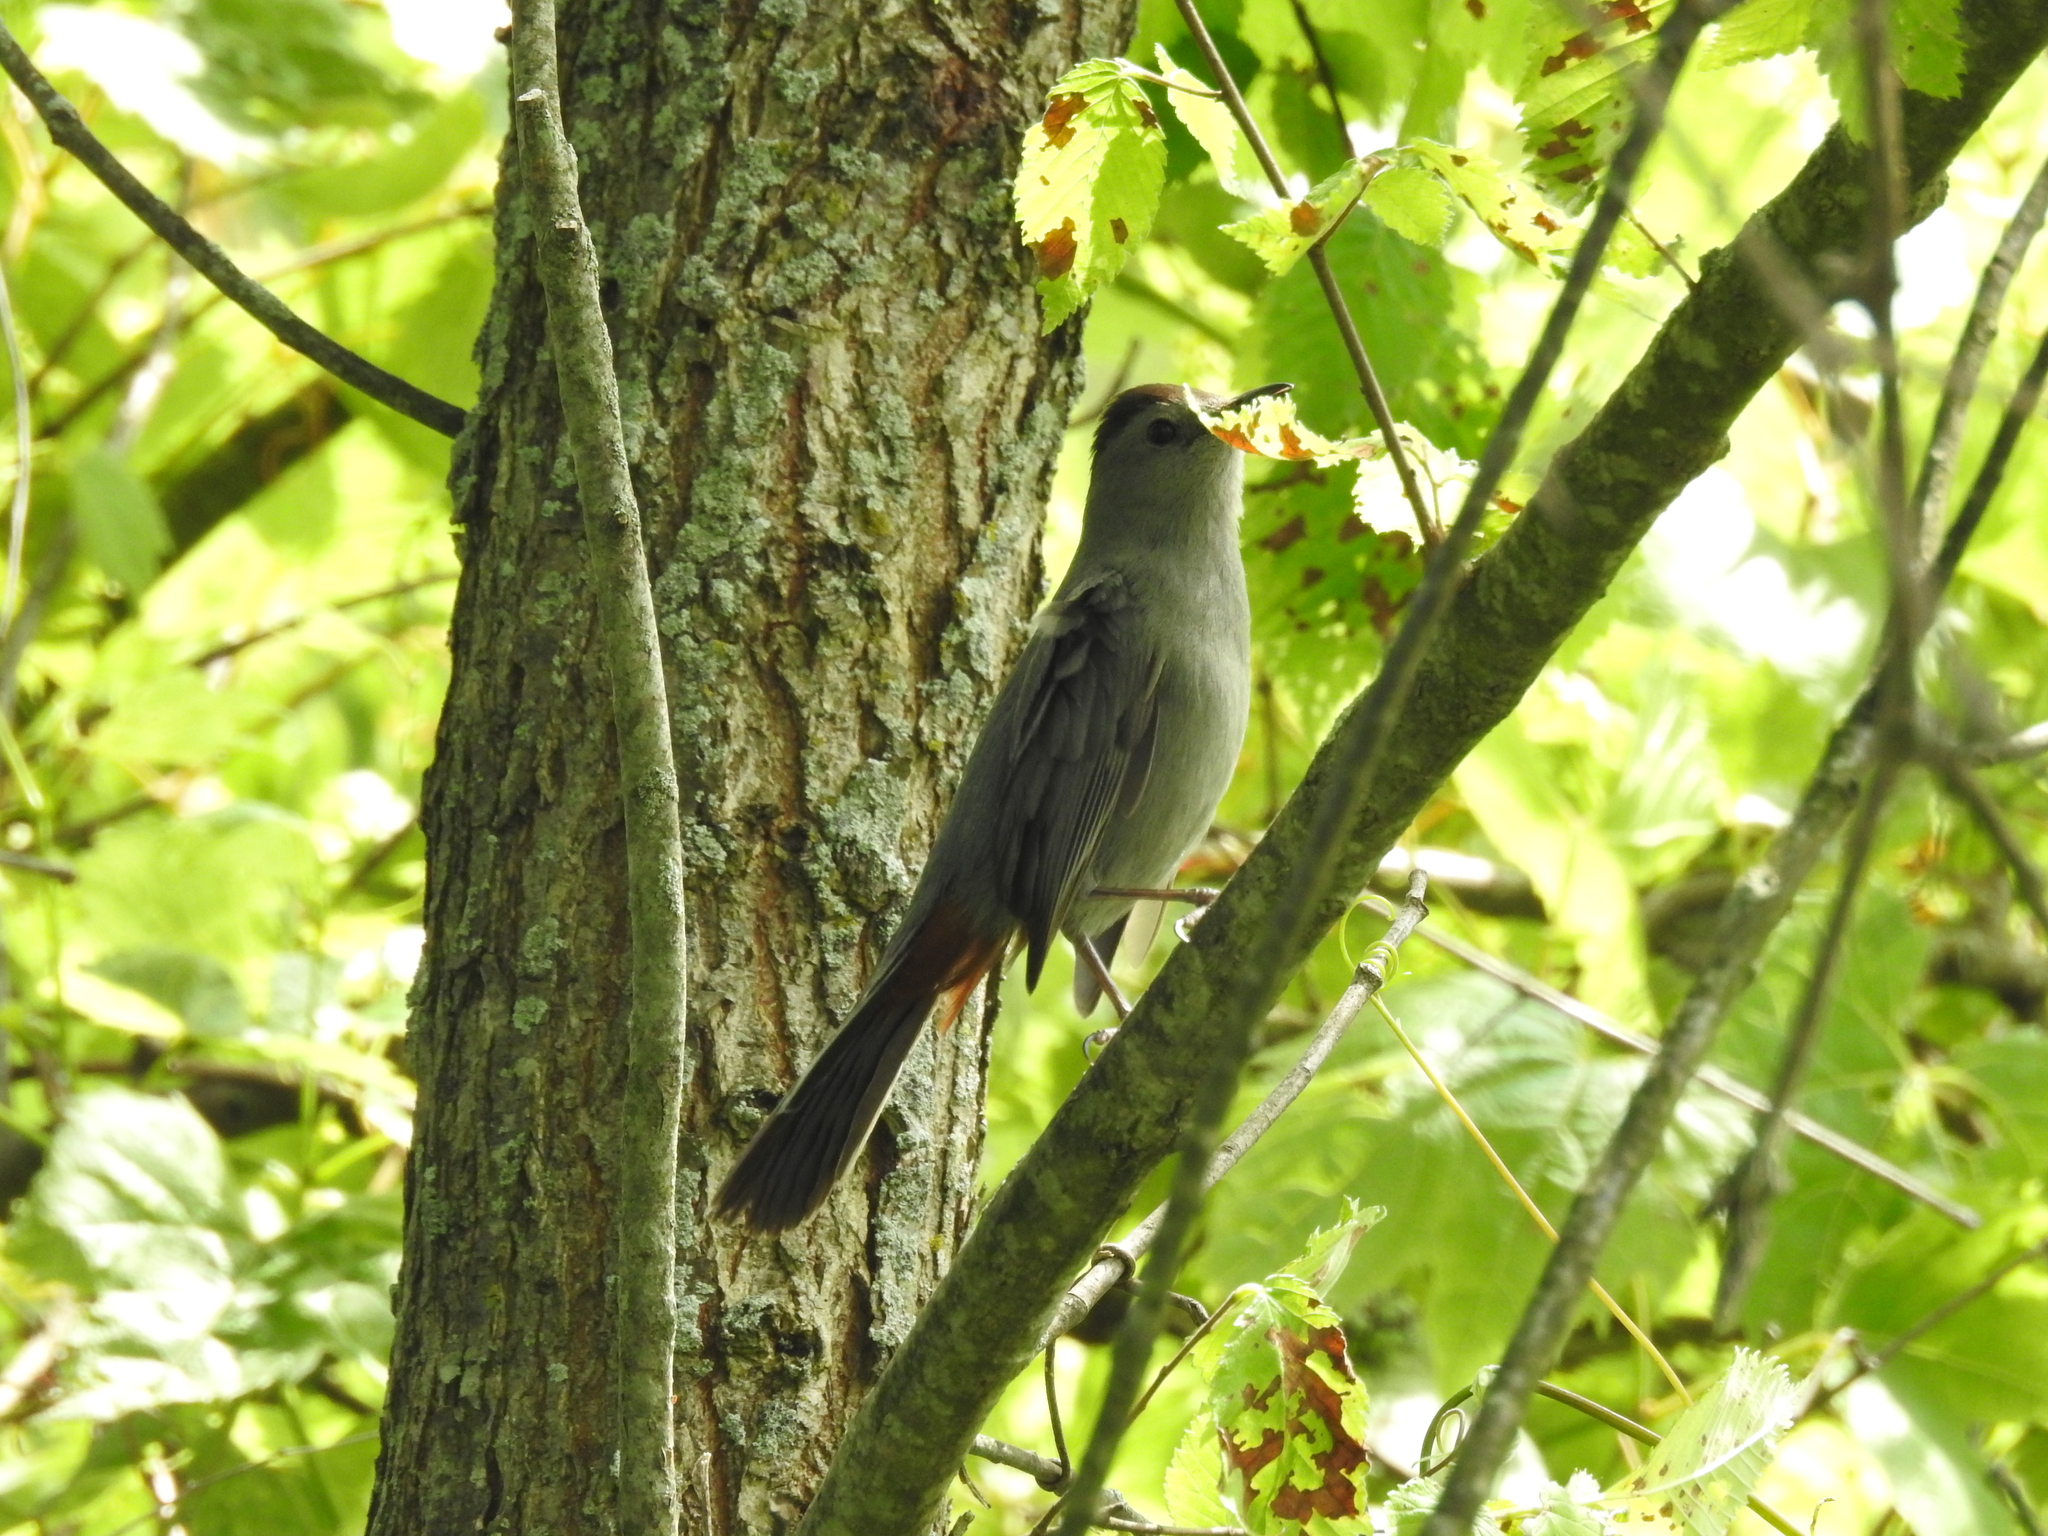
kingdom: Animalia
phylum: Chordata
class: Aves
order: Passeriformes
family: Mimidae
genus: Dumetella
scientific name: Dumetella carolinensis
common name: Gray catbird
